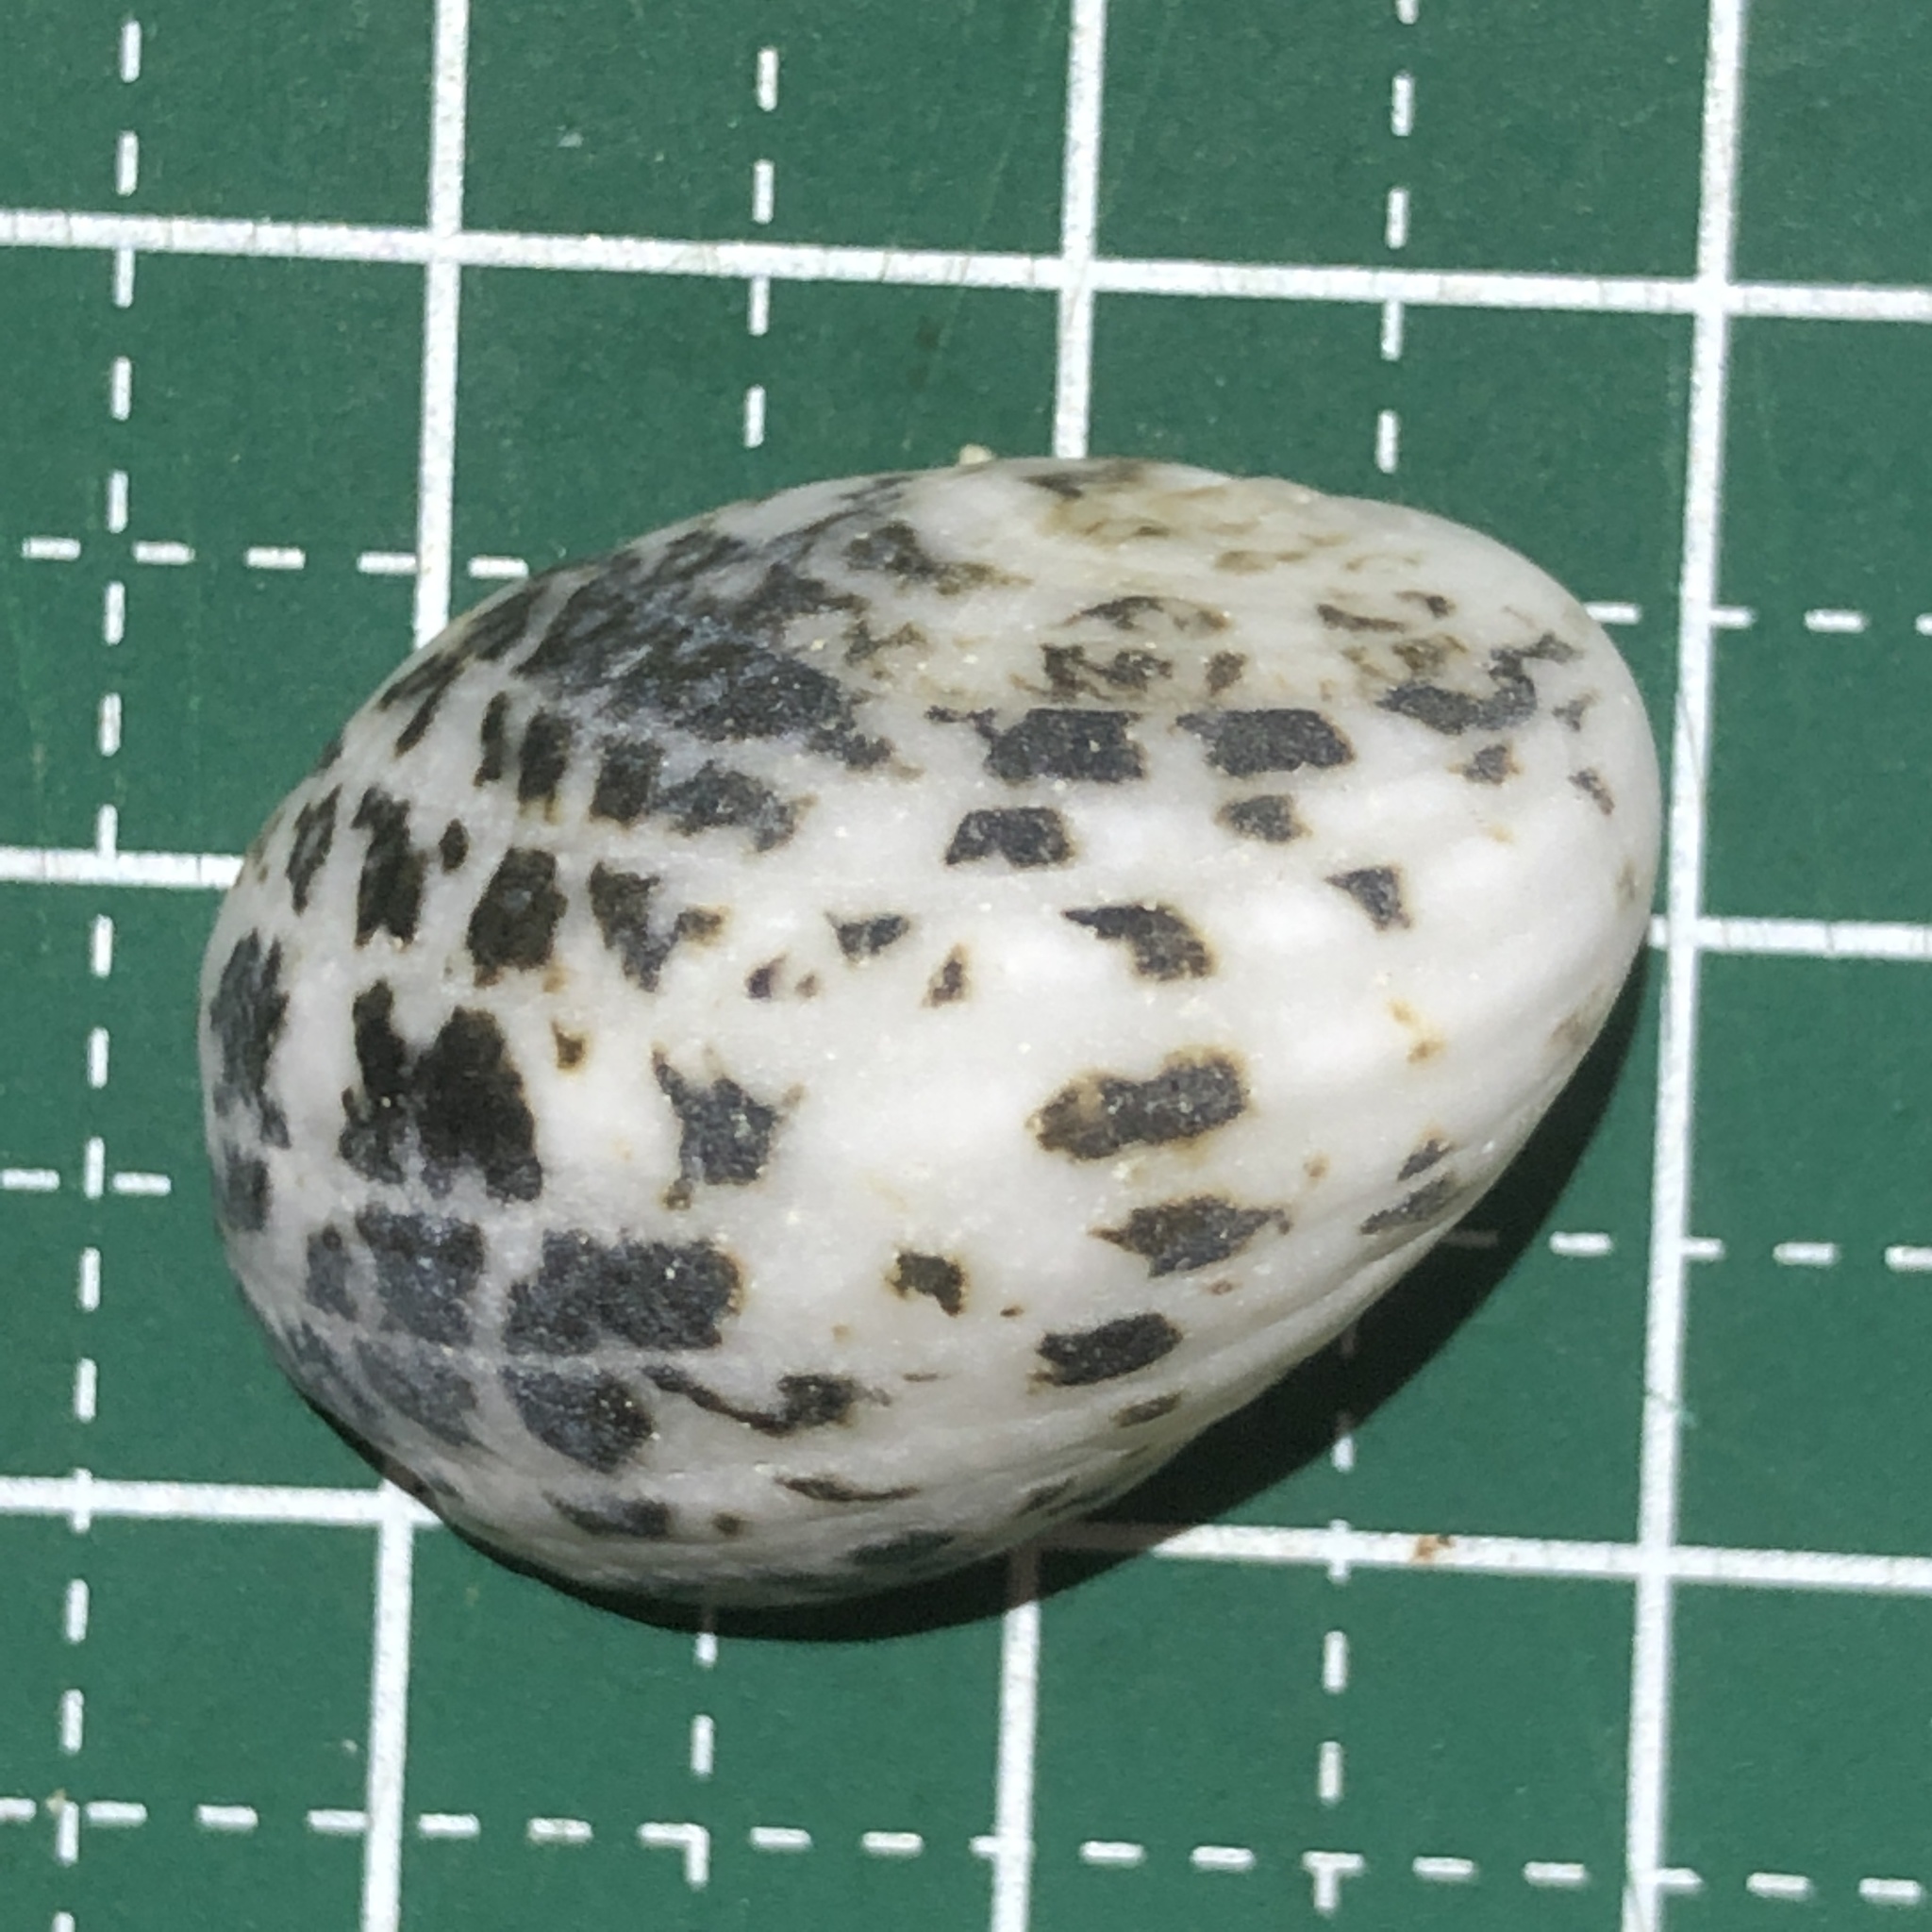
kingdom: Animalia
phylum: Mollusca
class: Gastropoda
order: Cycloneritida
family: Neritidae
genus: Nerita
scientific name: Nerita albicilla
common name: Blotched nerite
